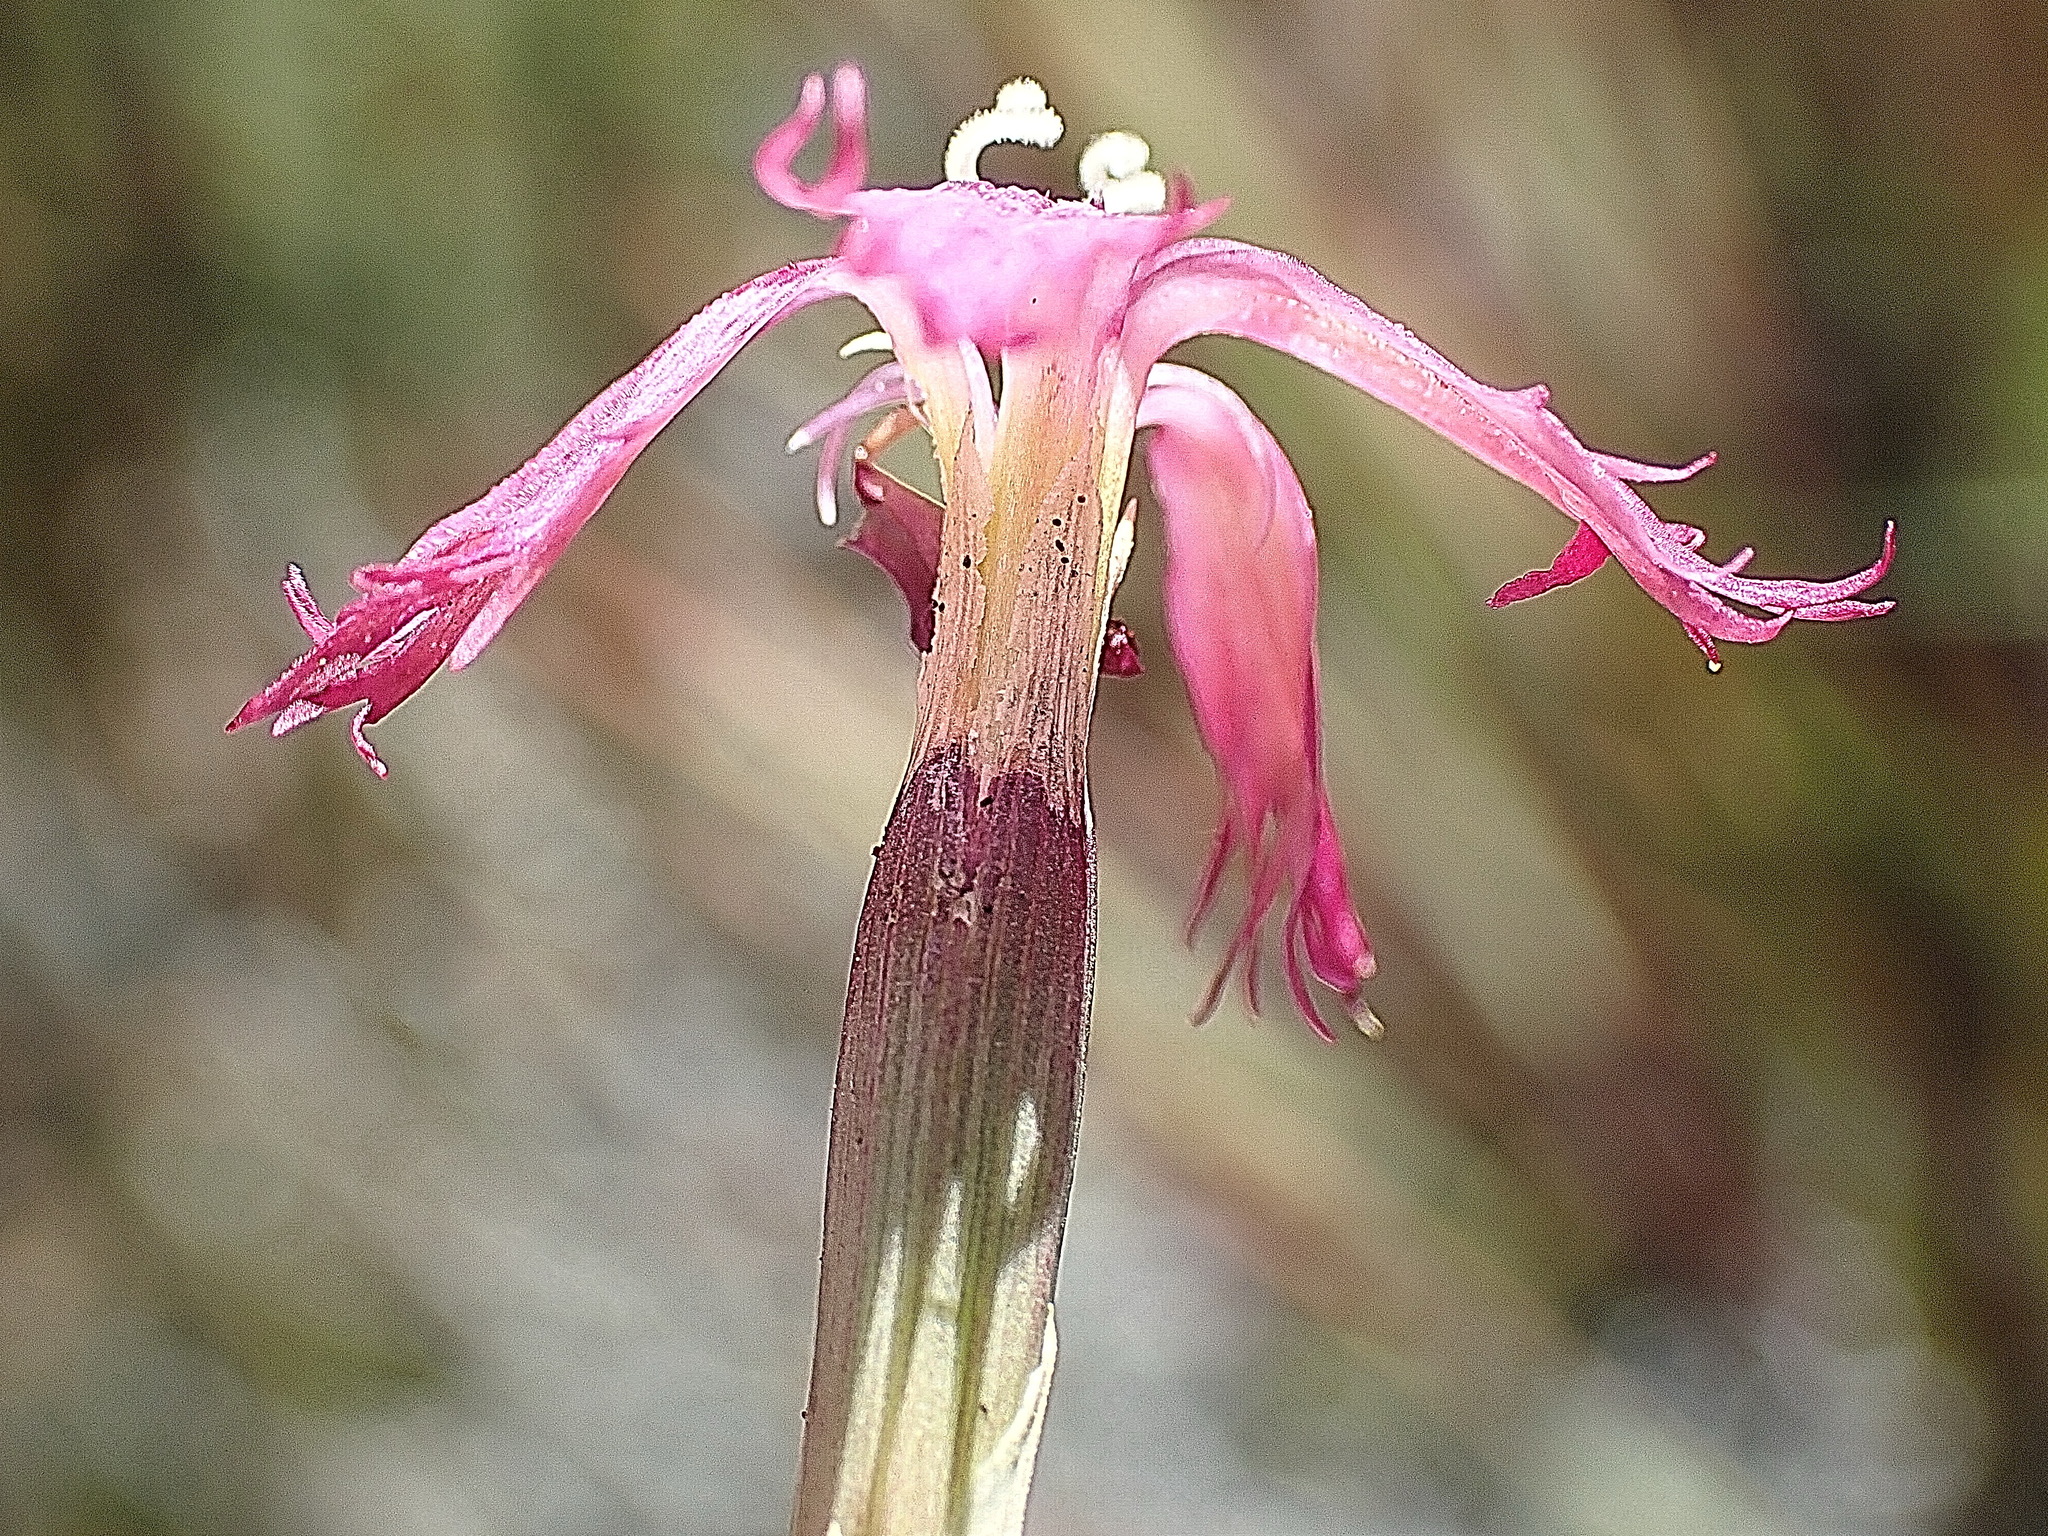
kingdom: Plantae
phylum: Tracheophyta
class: Magnoliopsida
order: Caryophyllales
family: Caryophyllaceae
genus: Dianthus
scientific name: Dianthus bolusii
